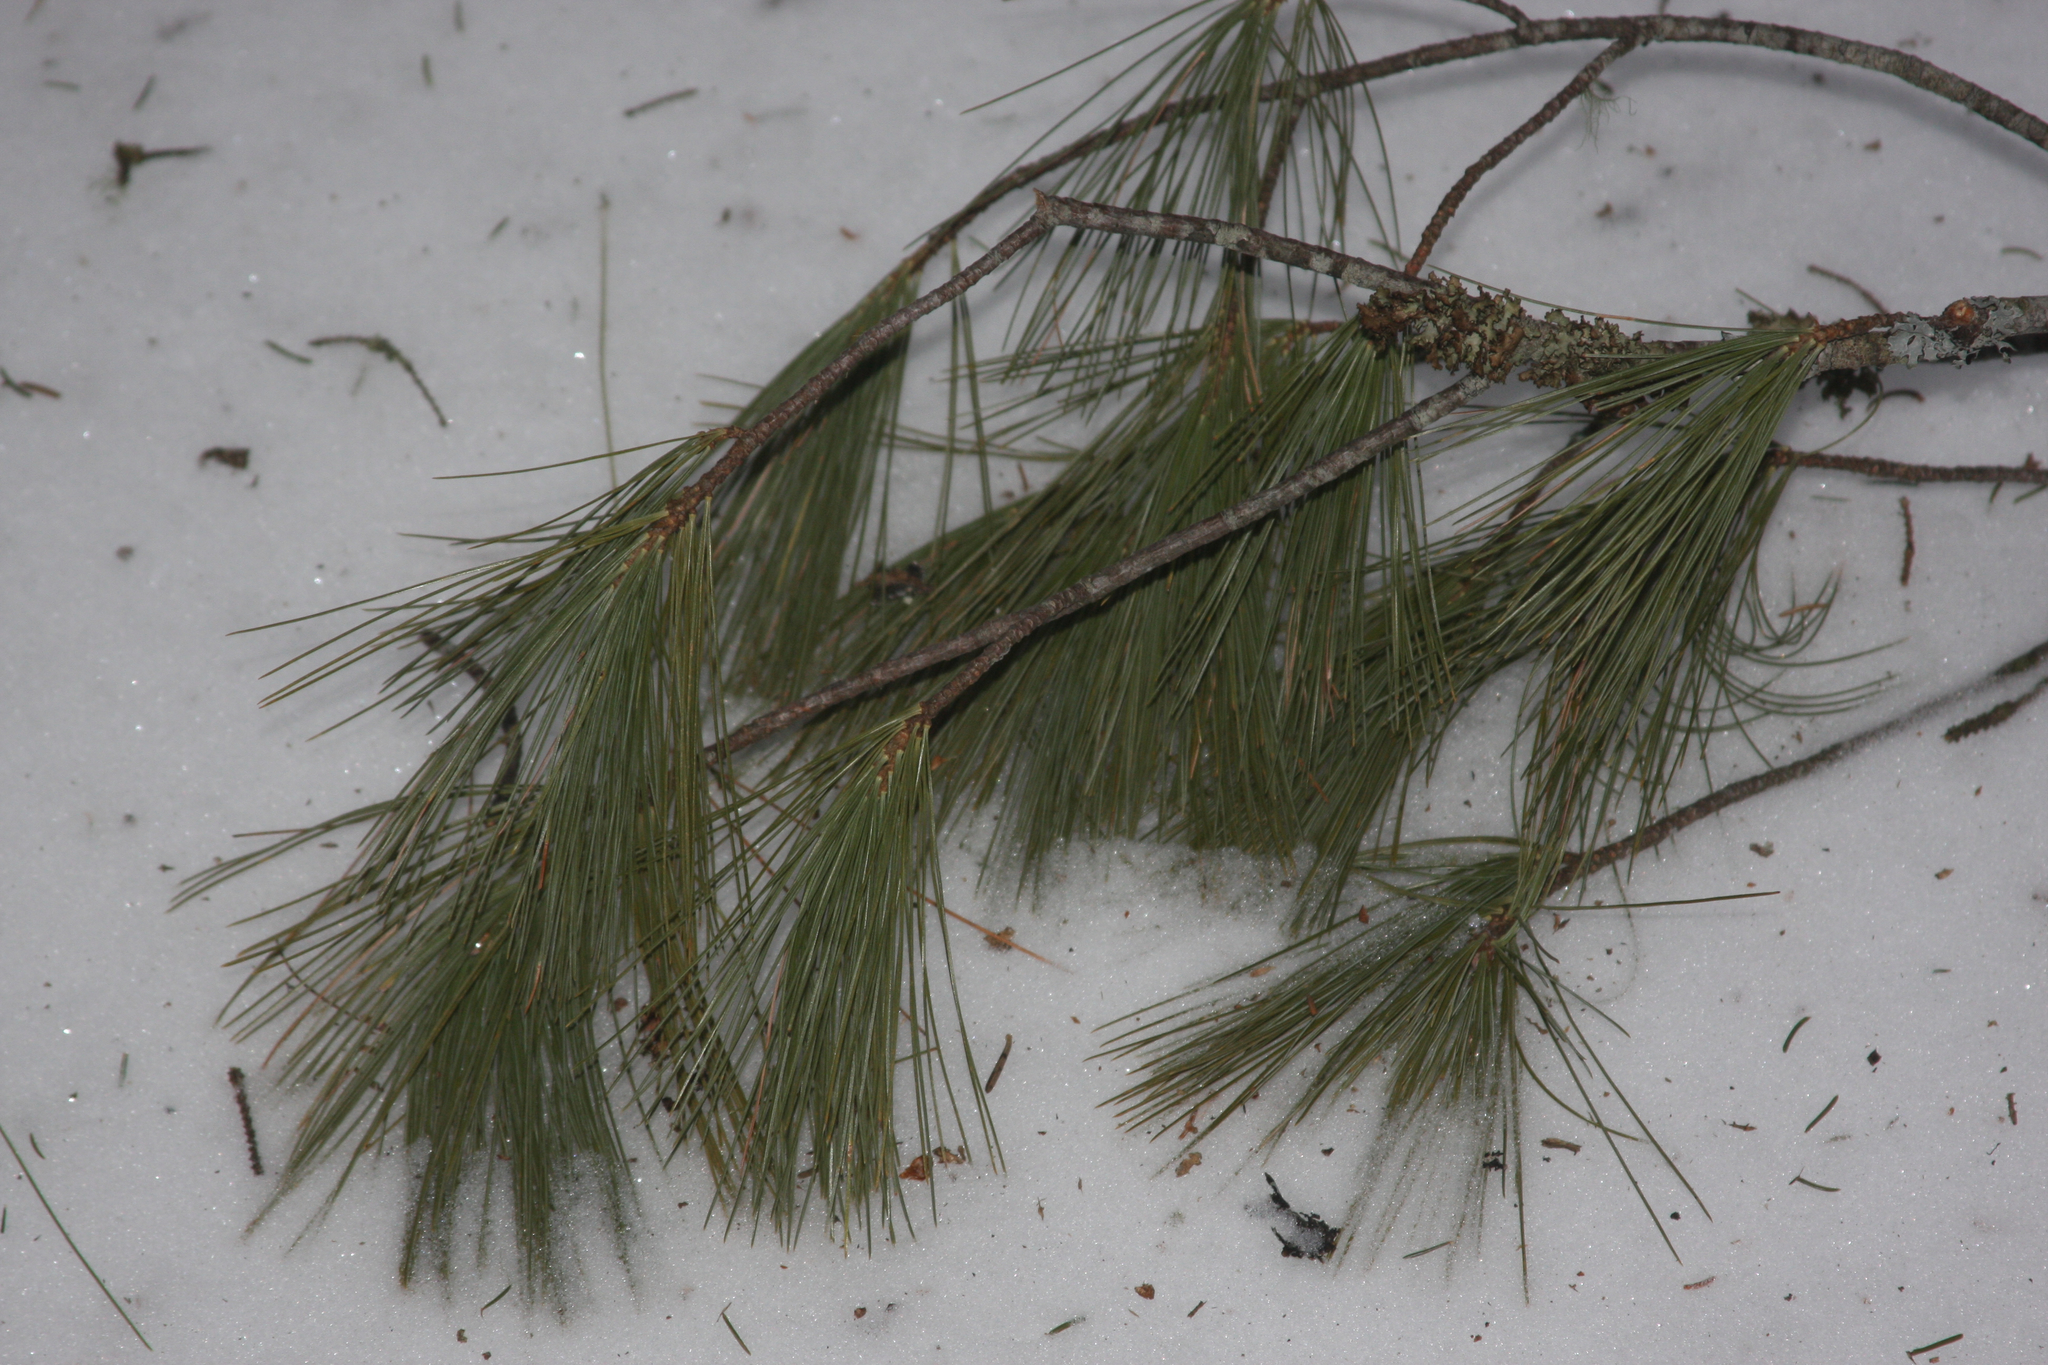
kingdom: Plantae
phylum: Tracheophyta
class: Pinopsida
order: Pinales
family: Pinaceae
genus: Pinus
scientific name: Pinus strobus
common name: Weymouth pine
